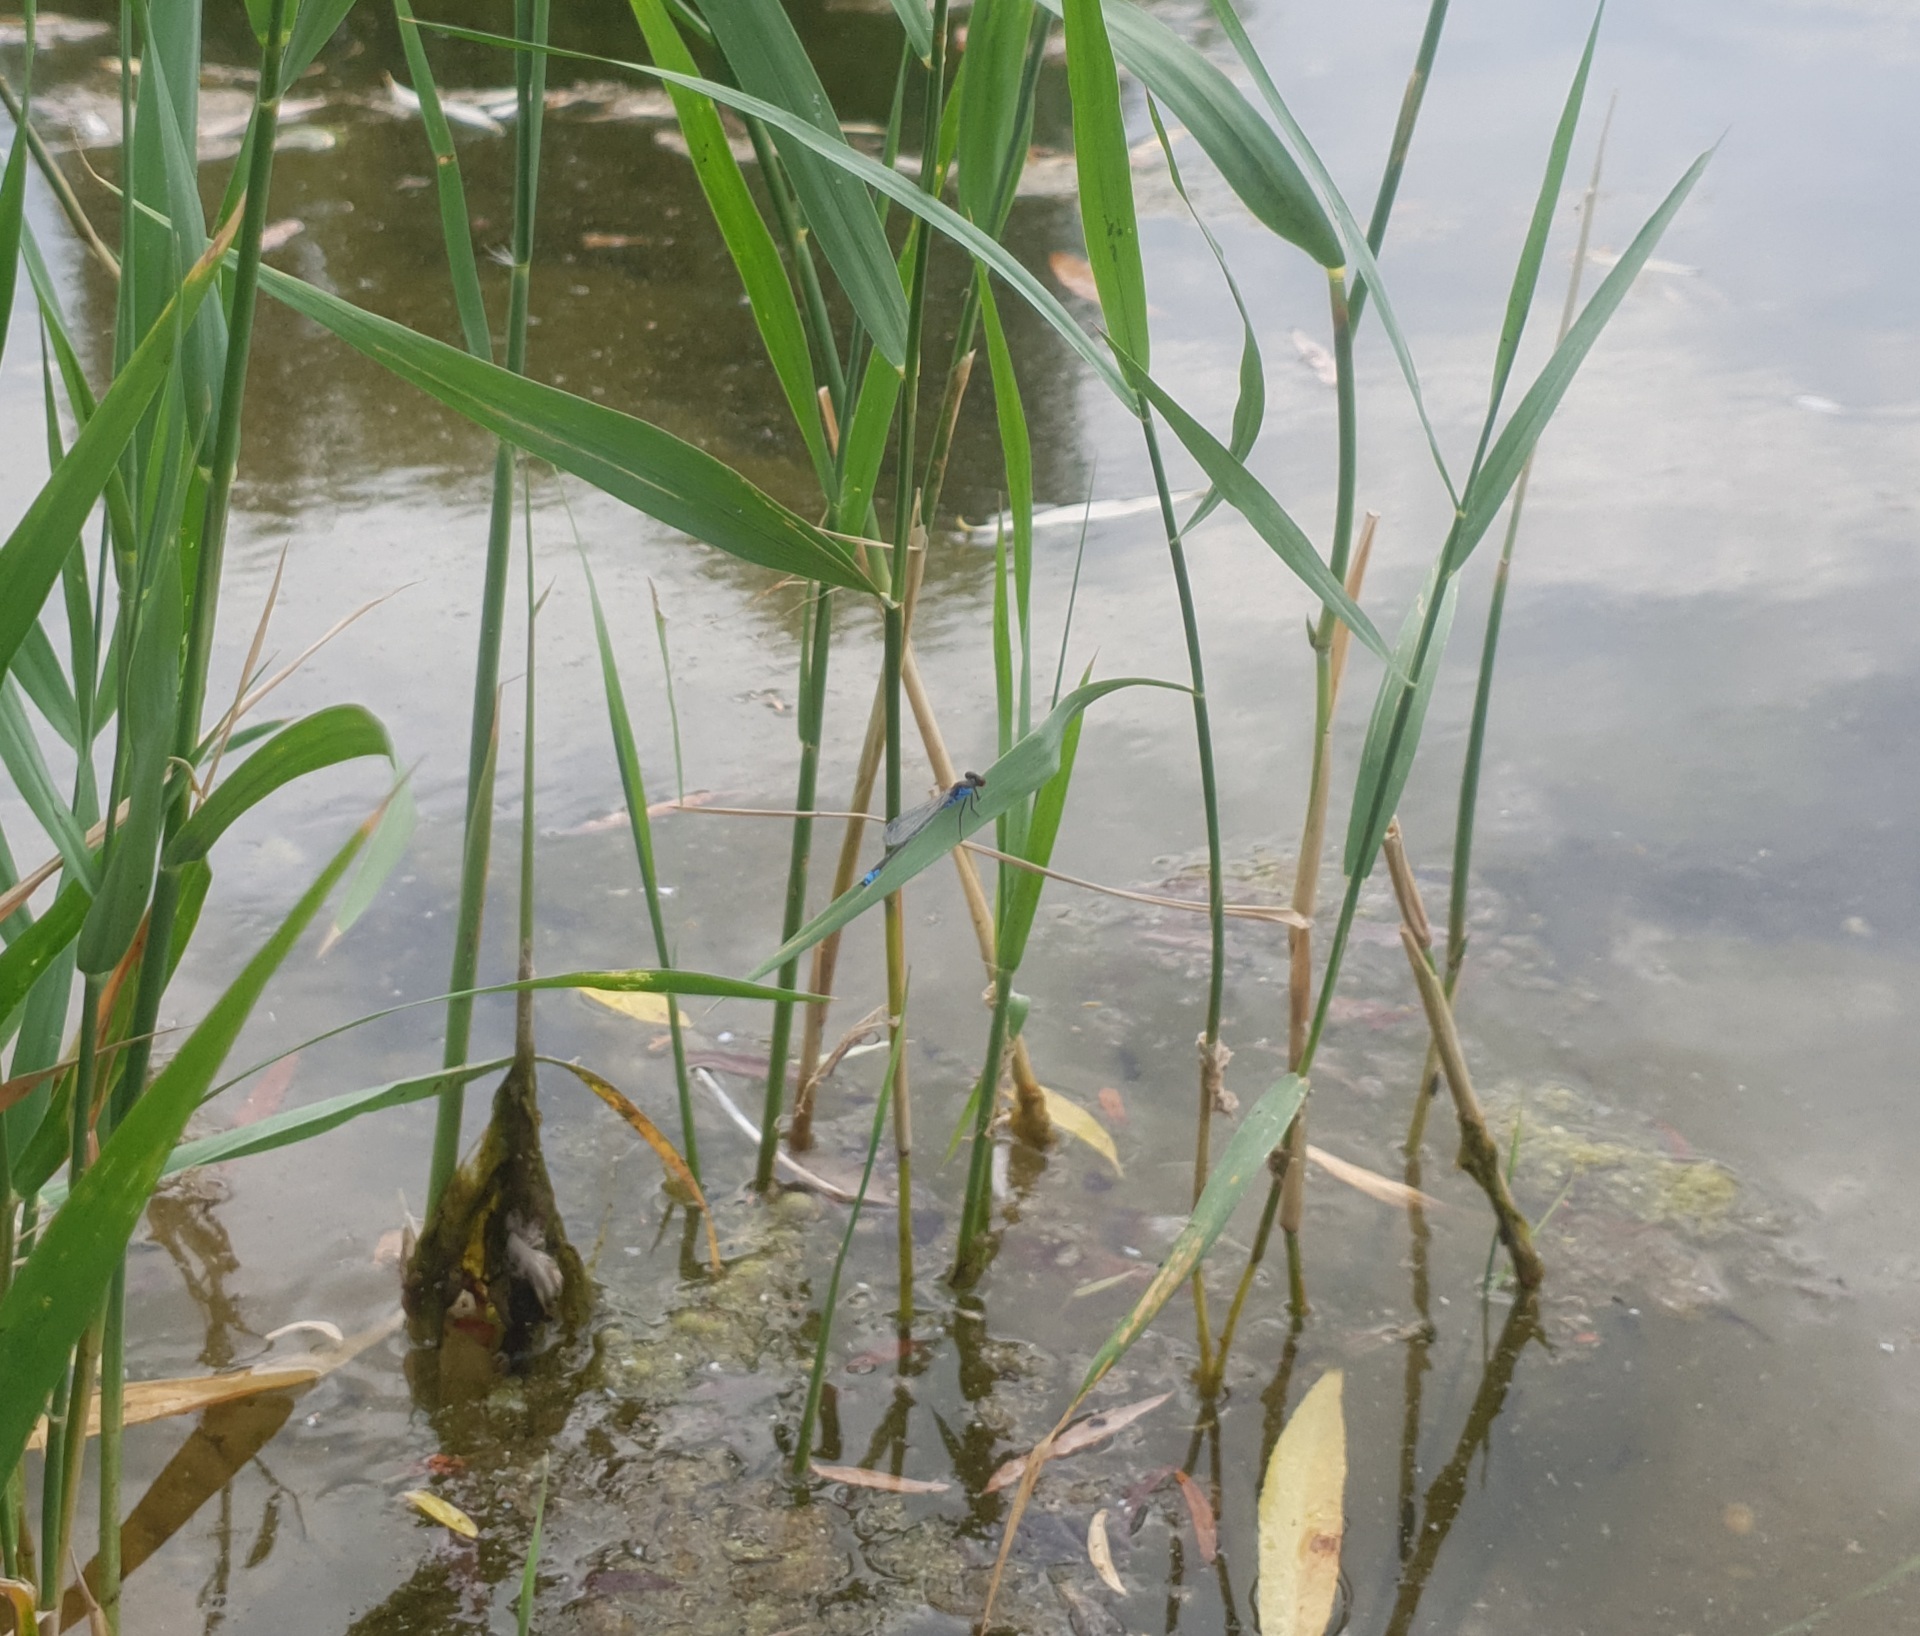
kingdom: Animalia
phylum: Arthropoda
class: Insecta
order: Odonata
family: Coenagrionidae
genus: Erythromma
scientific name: Erythromma viridulum
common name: Small red-eyed damselfly
